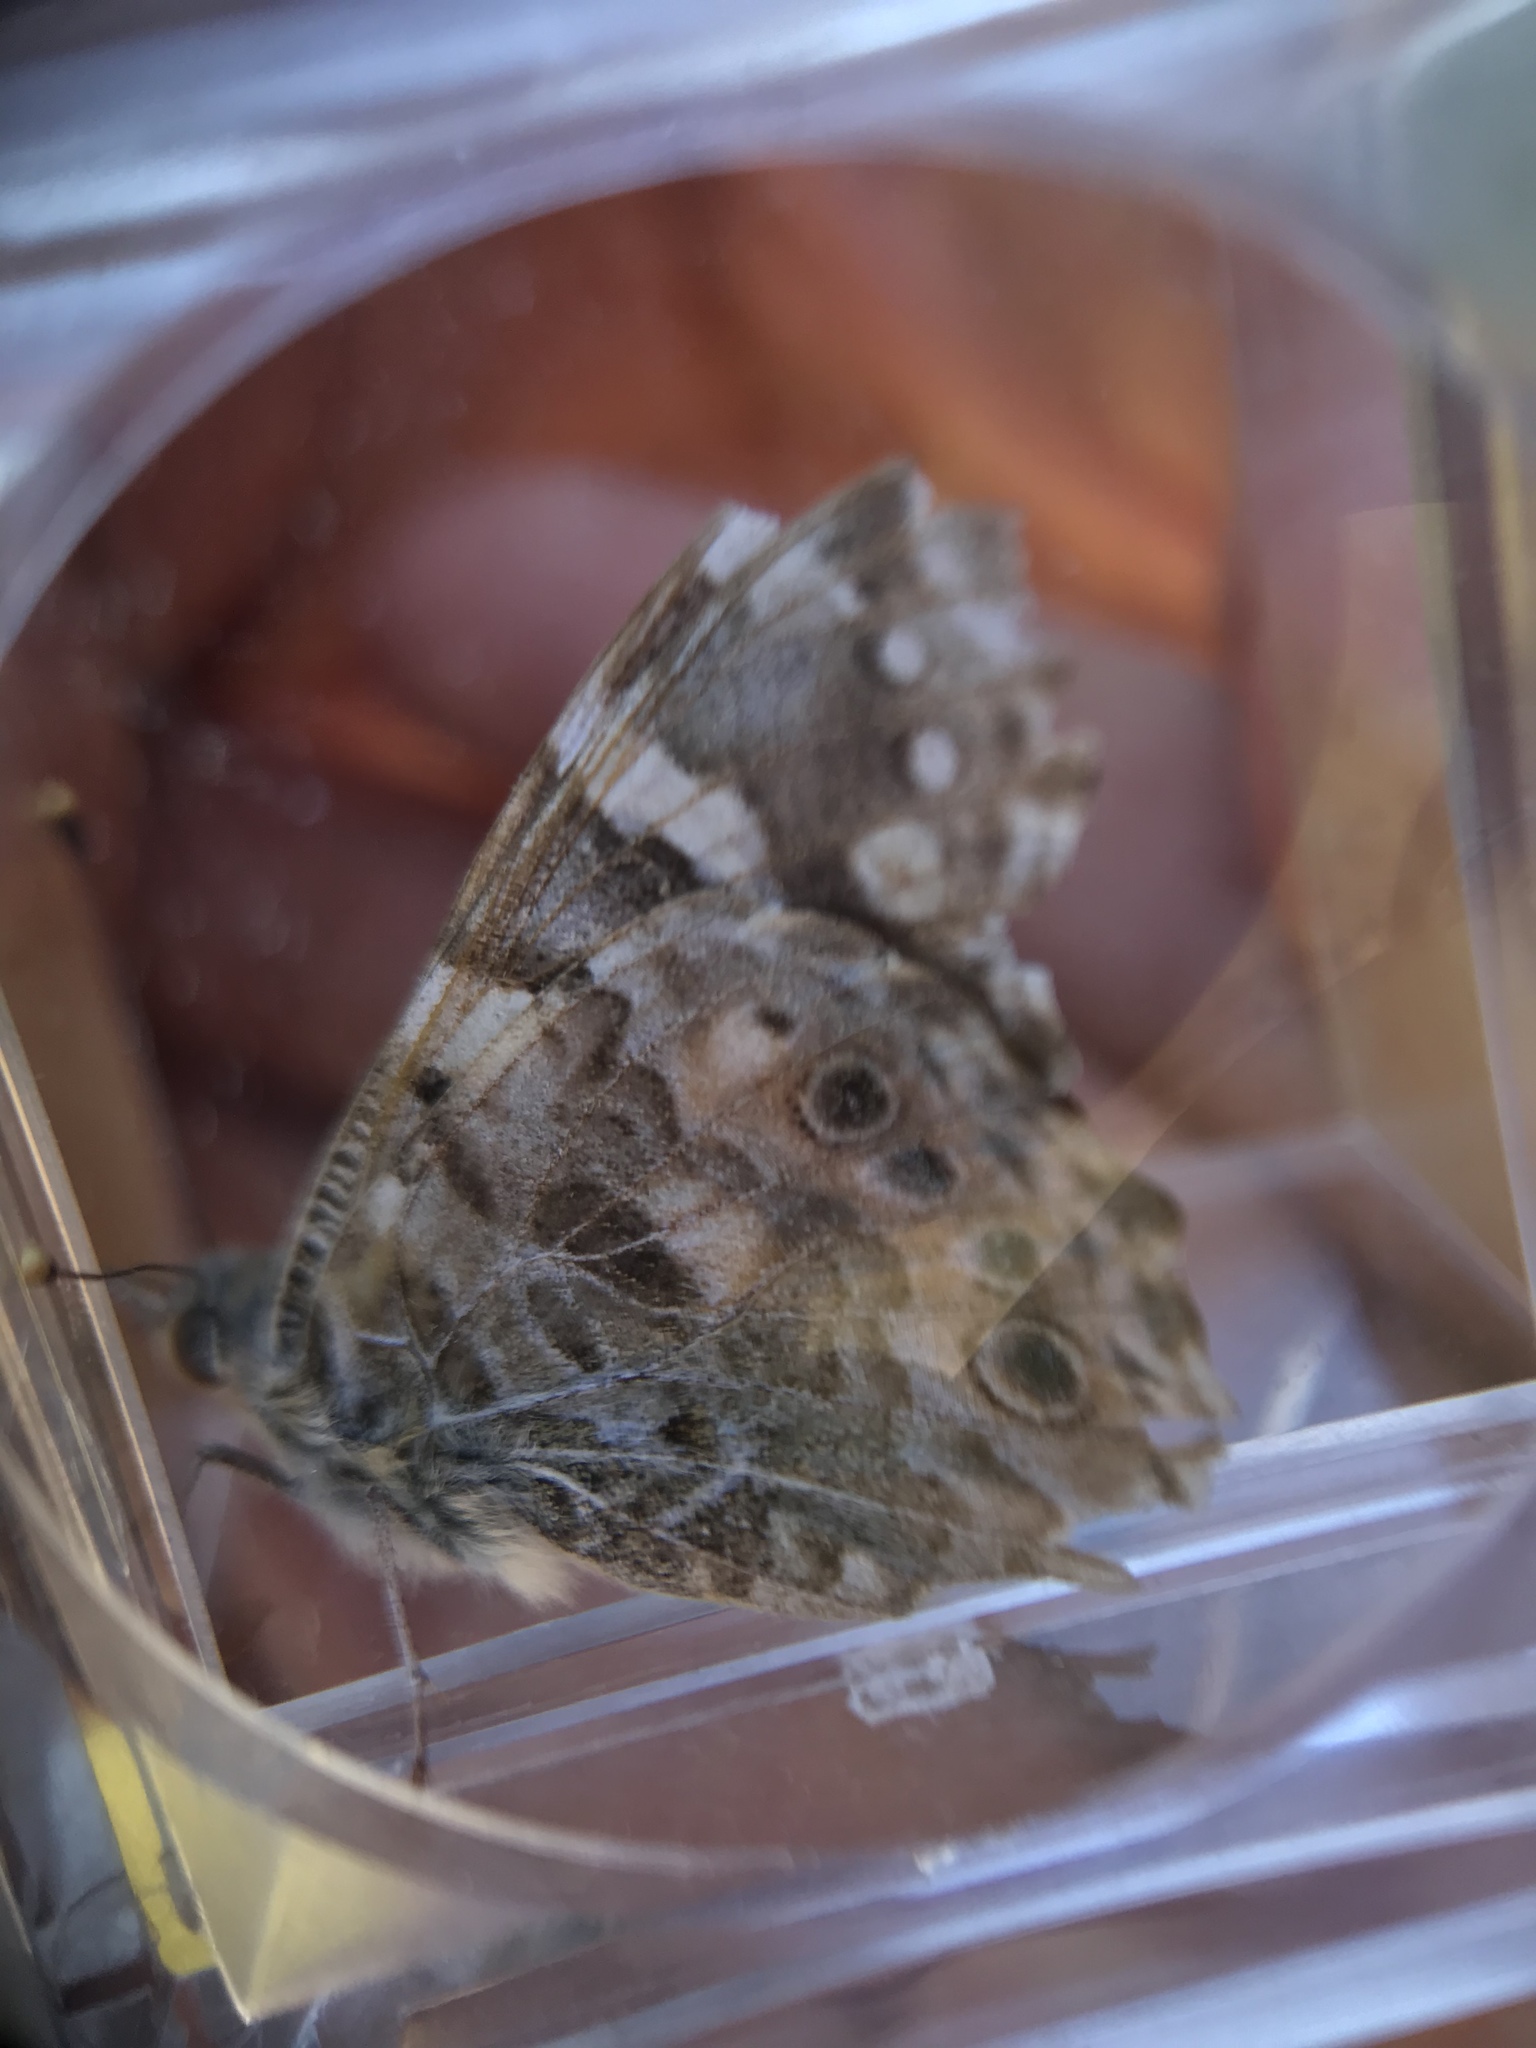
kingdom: Animalia
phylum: Arthropoda
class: Insecta
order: Lepidoptera
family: Nymphalidae
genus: Vanessa
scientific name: Vanessa cardui
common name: Painted lady
